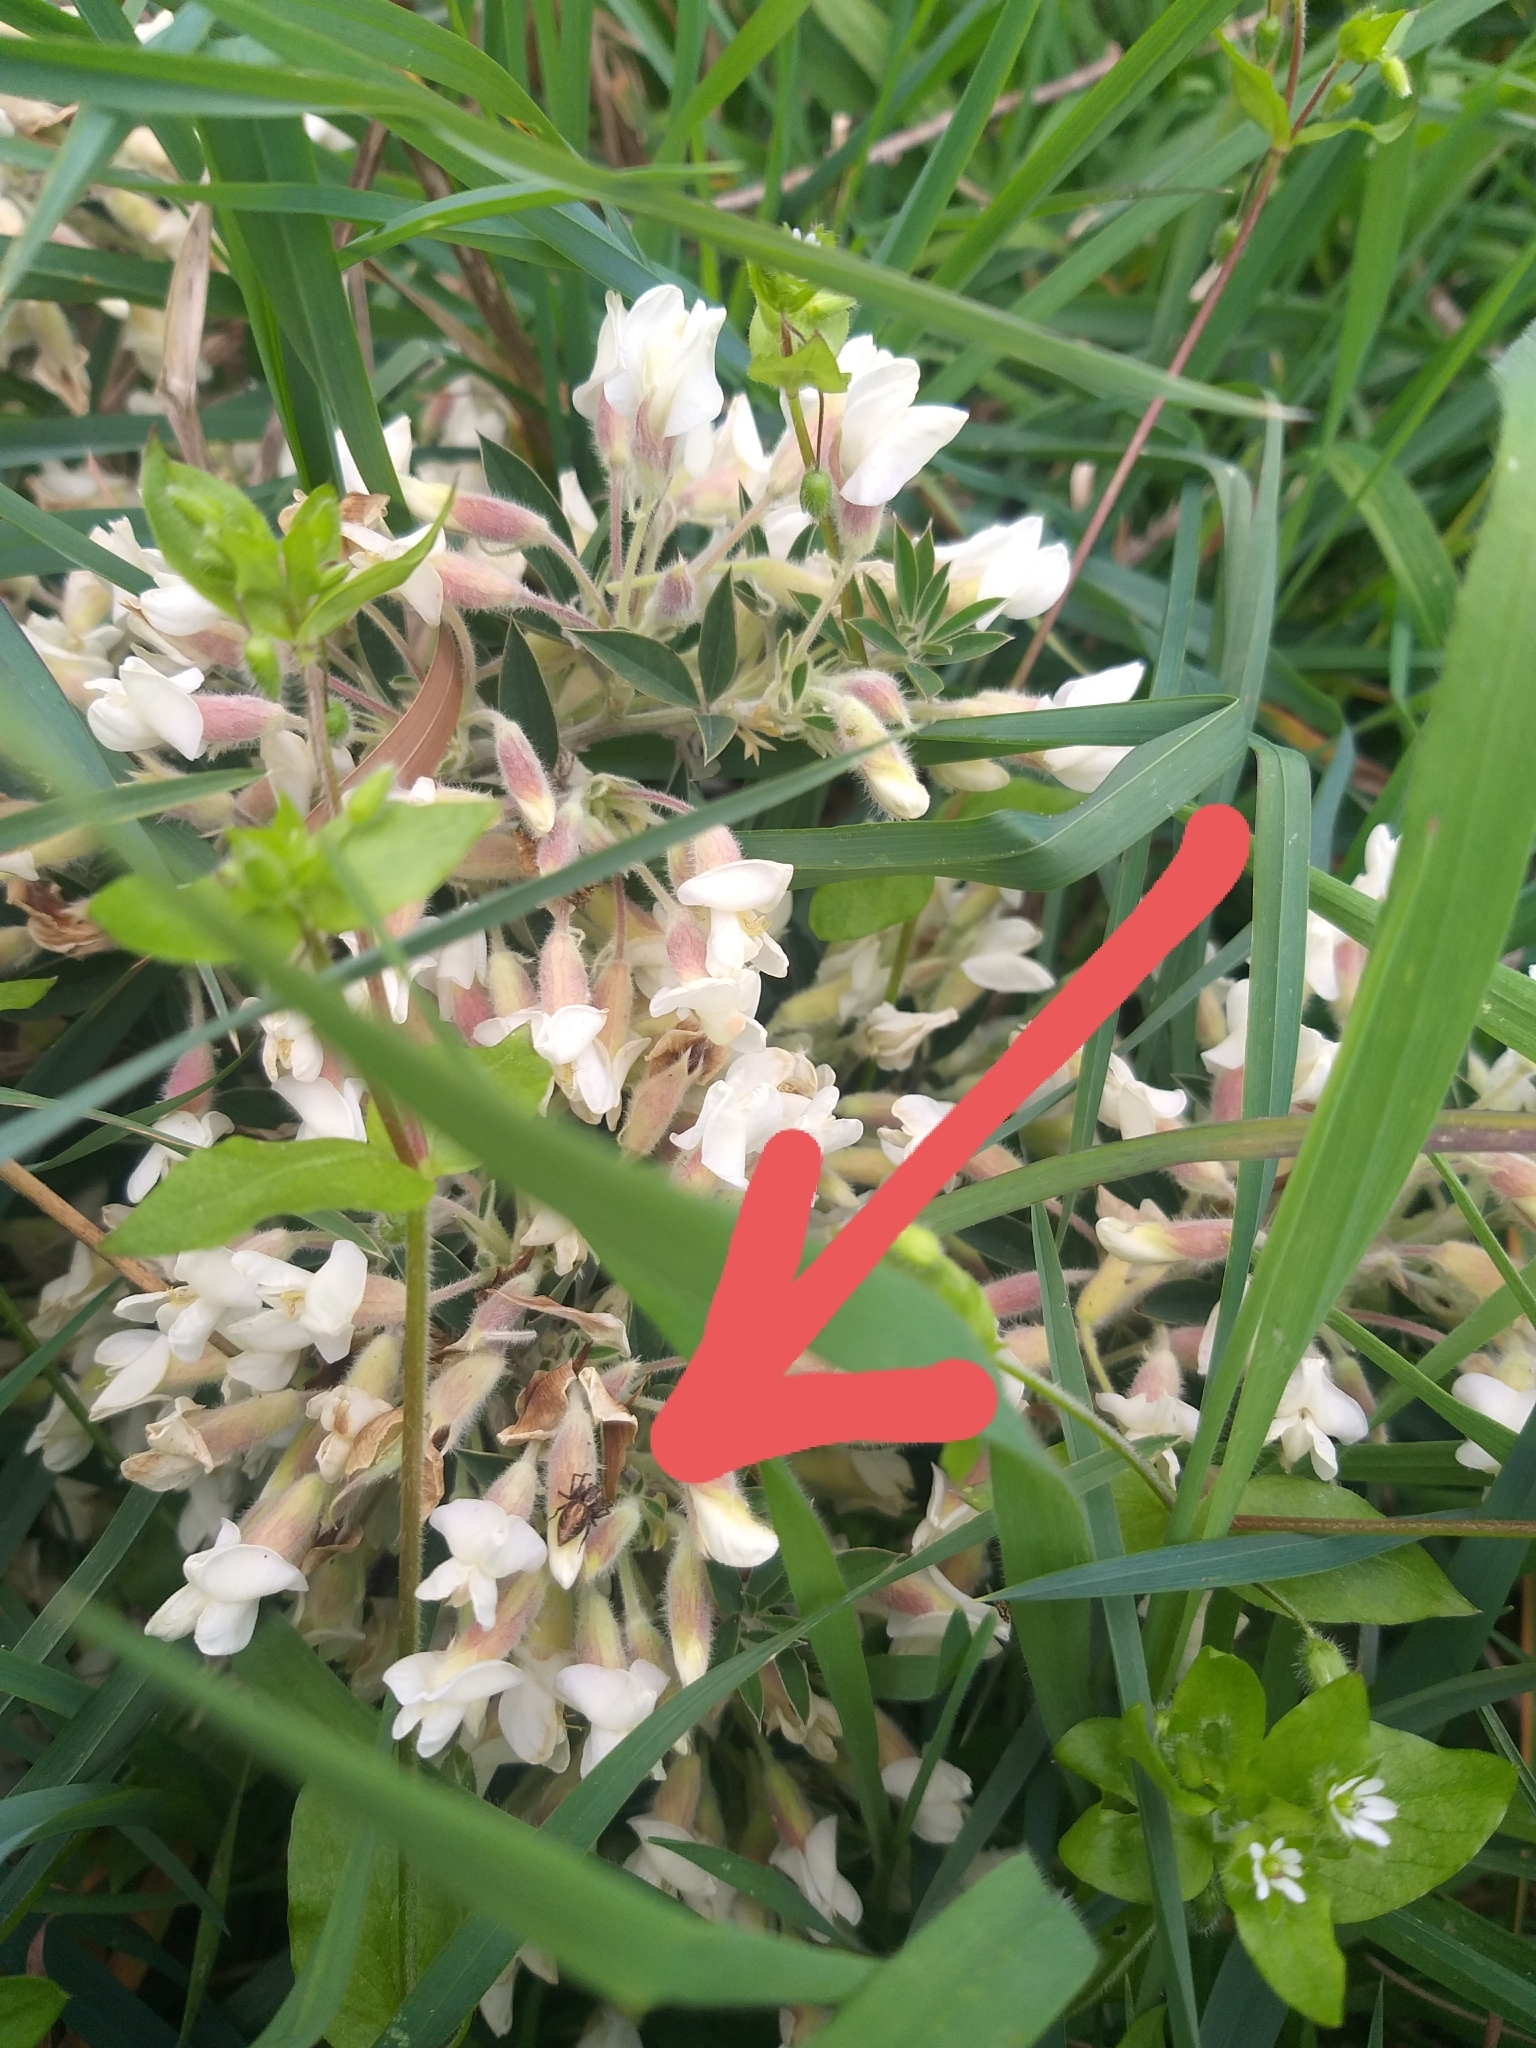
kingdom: Animalia
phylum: Arthropoda
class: Arachnida
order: Araneae
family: Oxyopidae
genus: Oxyopes
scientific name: Oxyopes gracilipes
